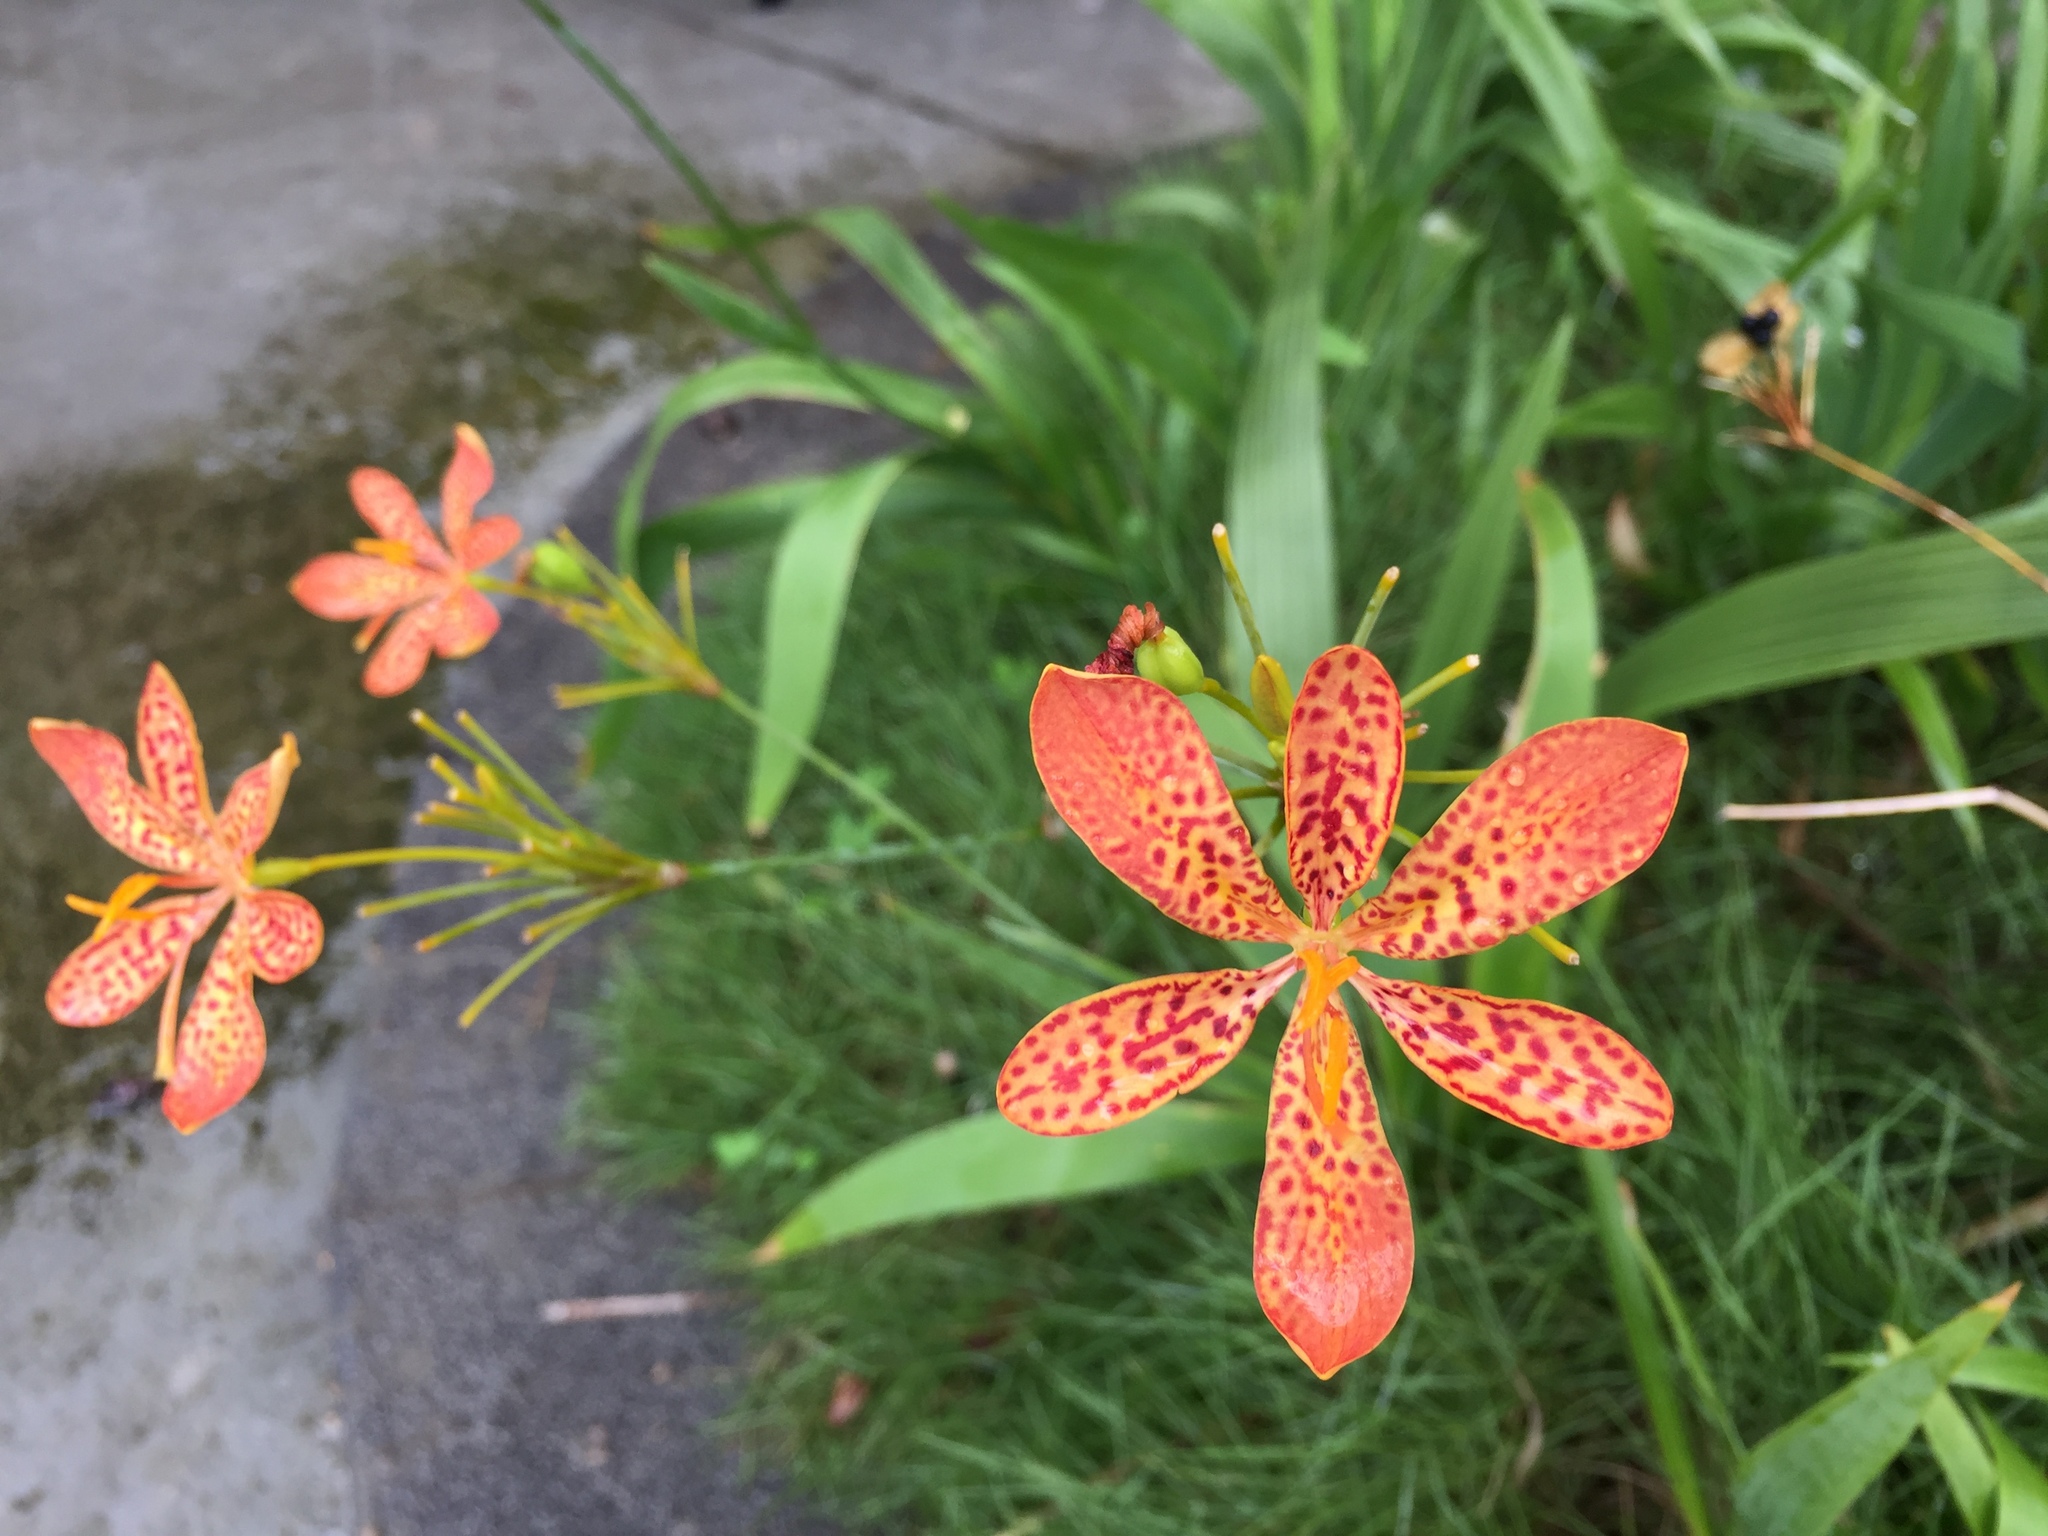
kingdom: Plantae
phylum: Tracheophyta
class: Liliopsida
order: Asparagales
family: Iridaceae
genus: Iris
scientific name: Iris domestica
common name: Belamcanda
